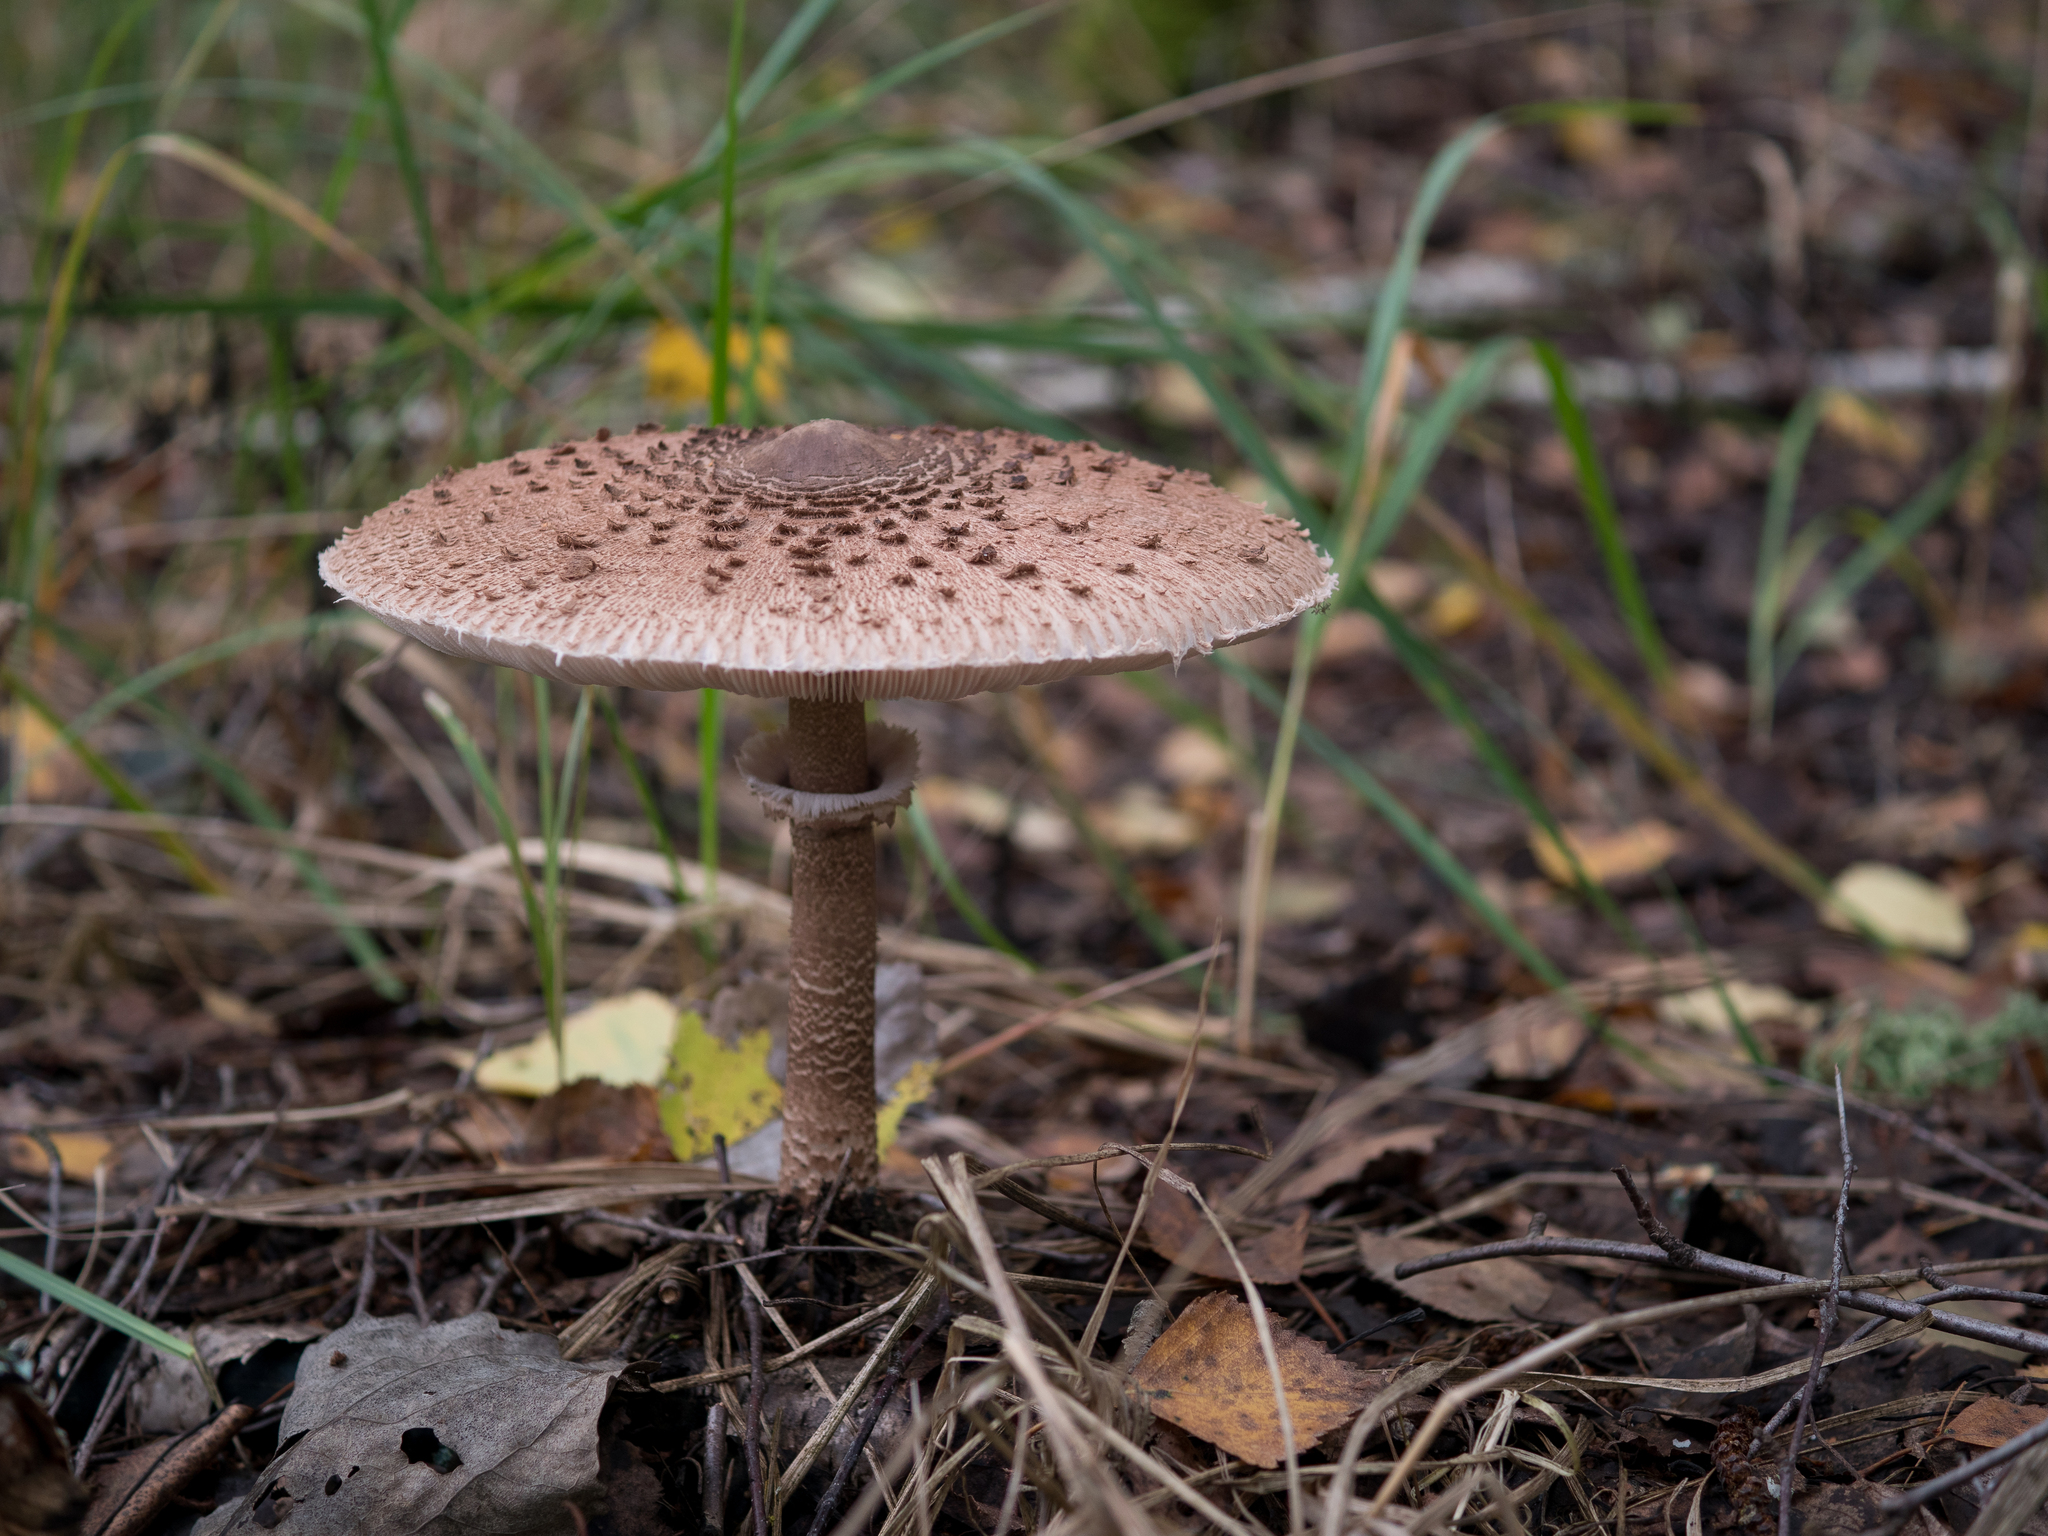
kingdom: Fungi
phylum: Basidiomycota
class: Agaricomycetes
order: Agaricales
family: Agaricaceae
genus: Macrolepiota
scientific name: Macrolepiota procera
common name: Parasol
